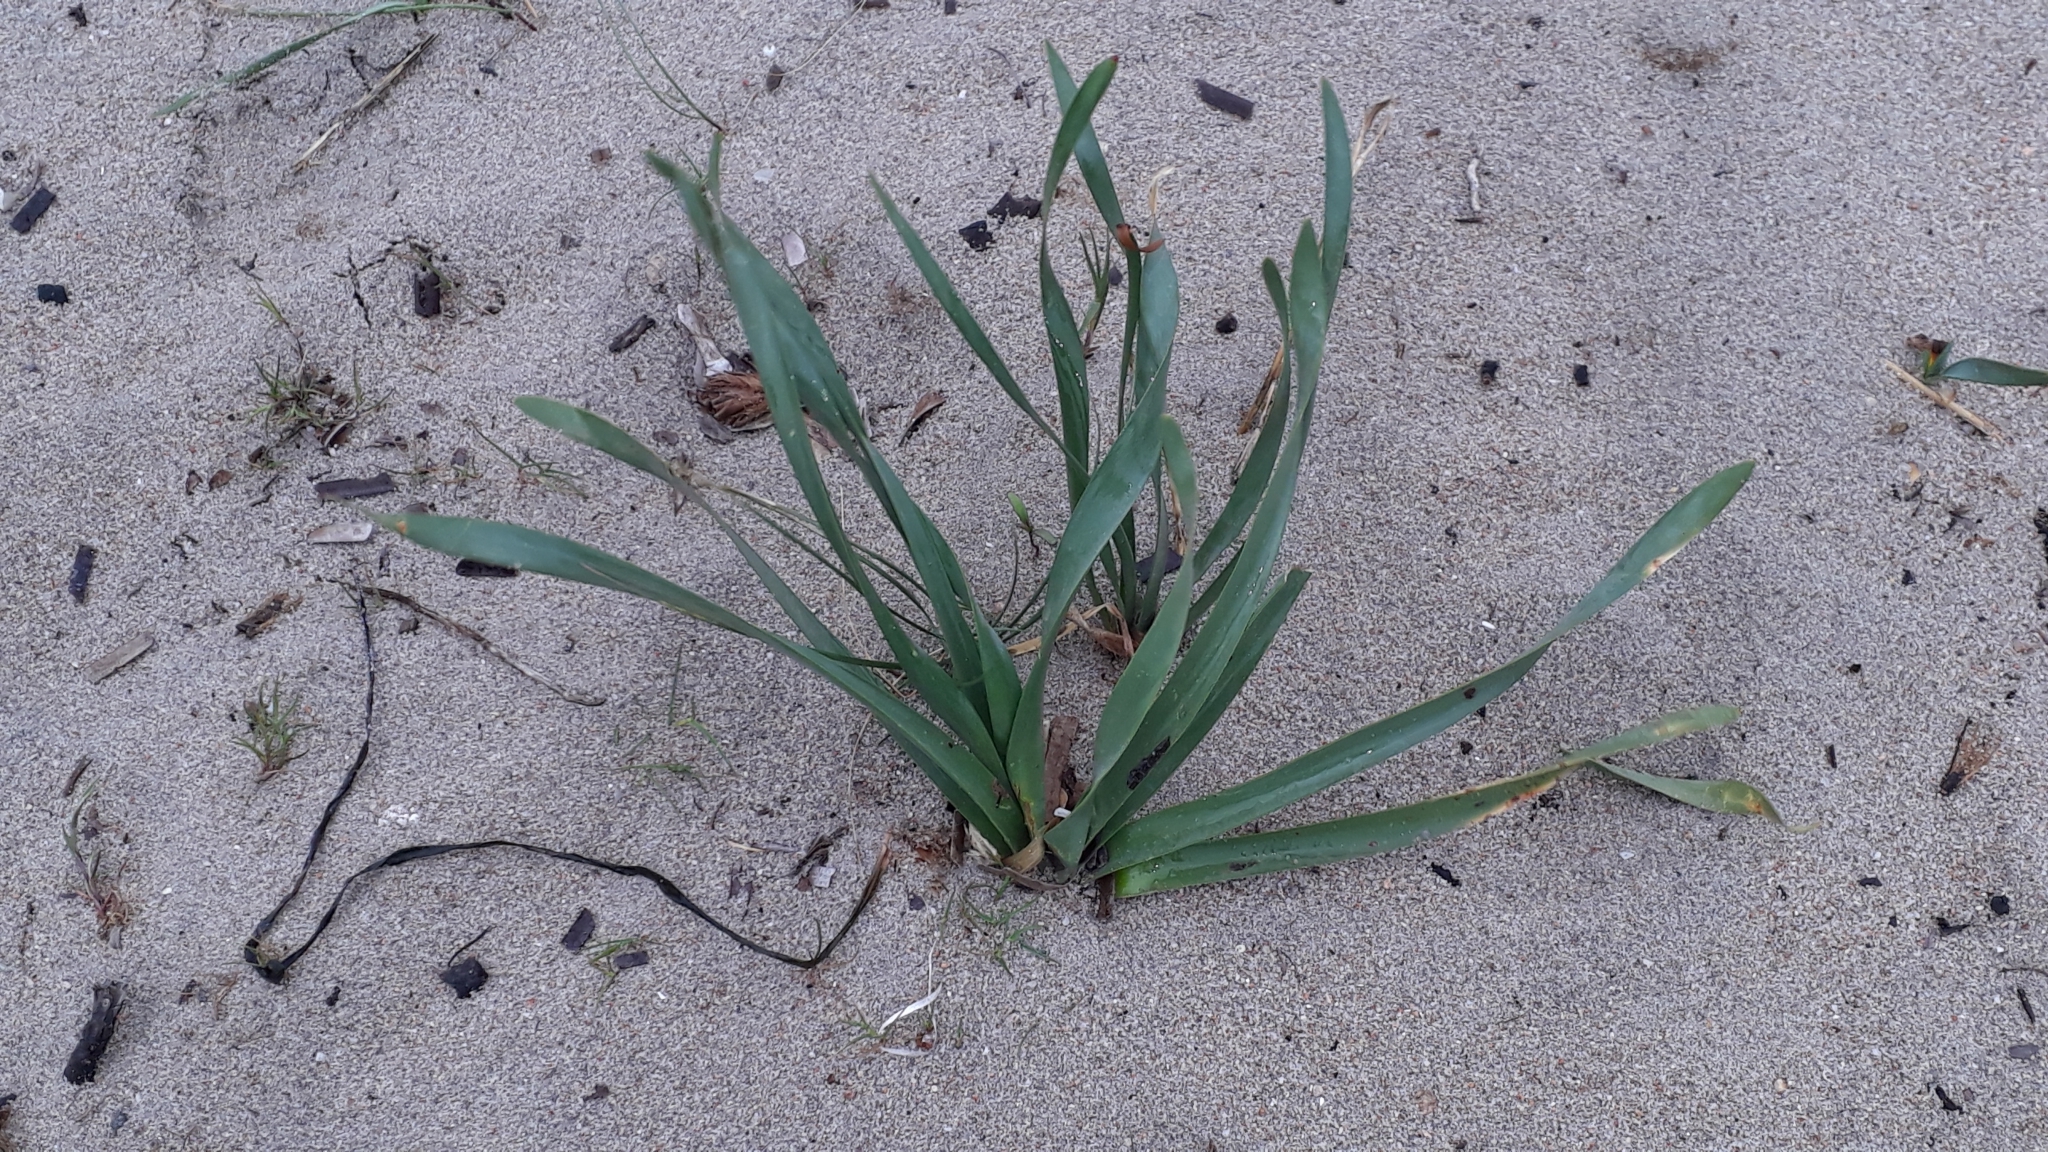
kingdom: Plantae
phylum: Tracheophyta
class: Liliopsida
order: Asparagales
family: Amaryllidaceae
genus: Pancratium
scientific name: Pancratium maritimum
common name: Sea-daffodil
